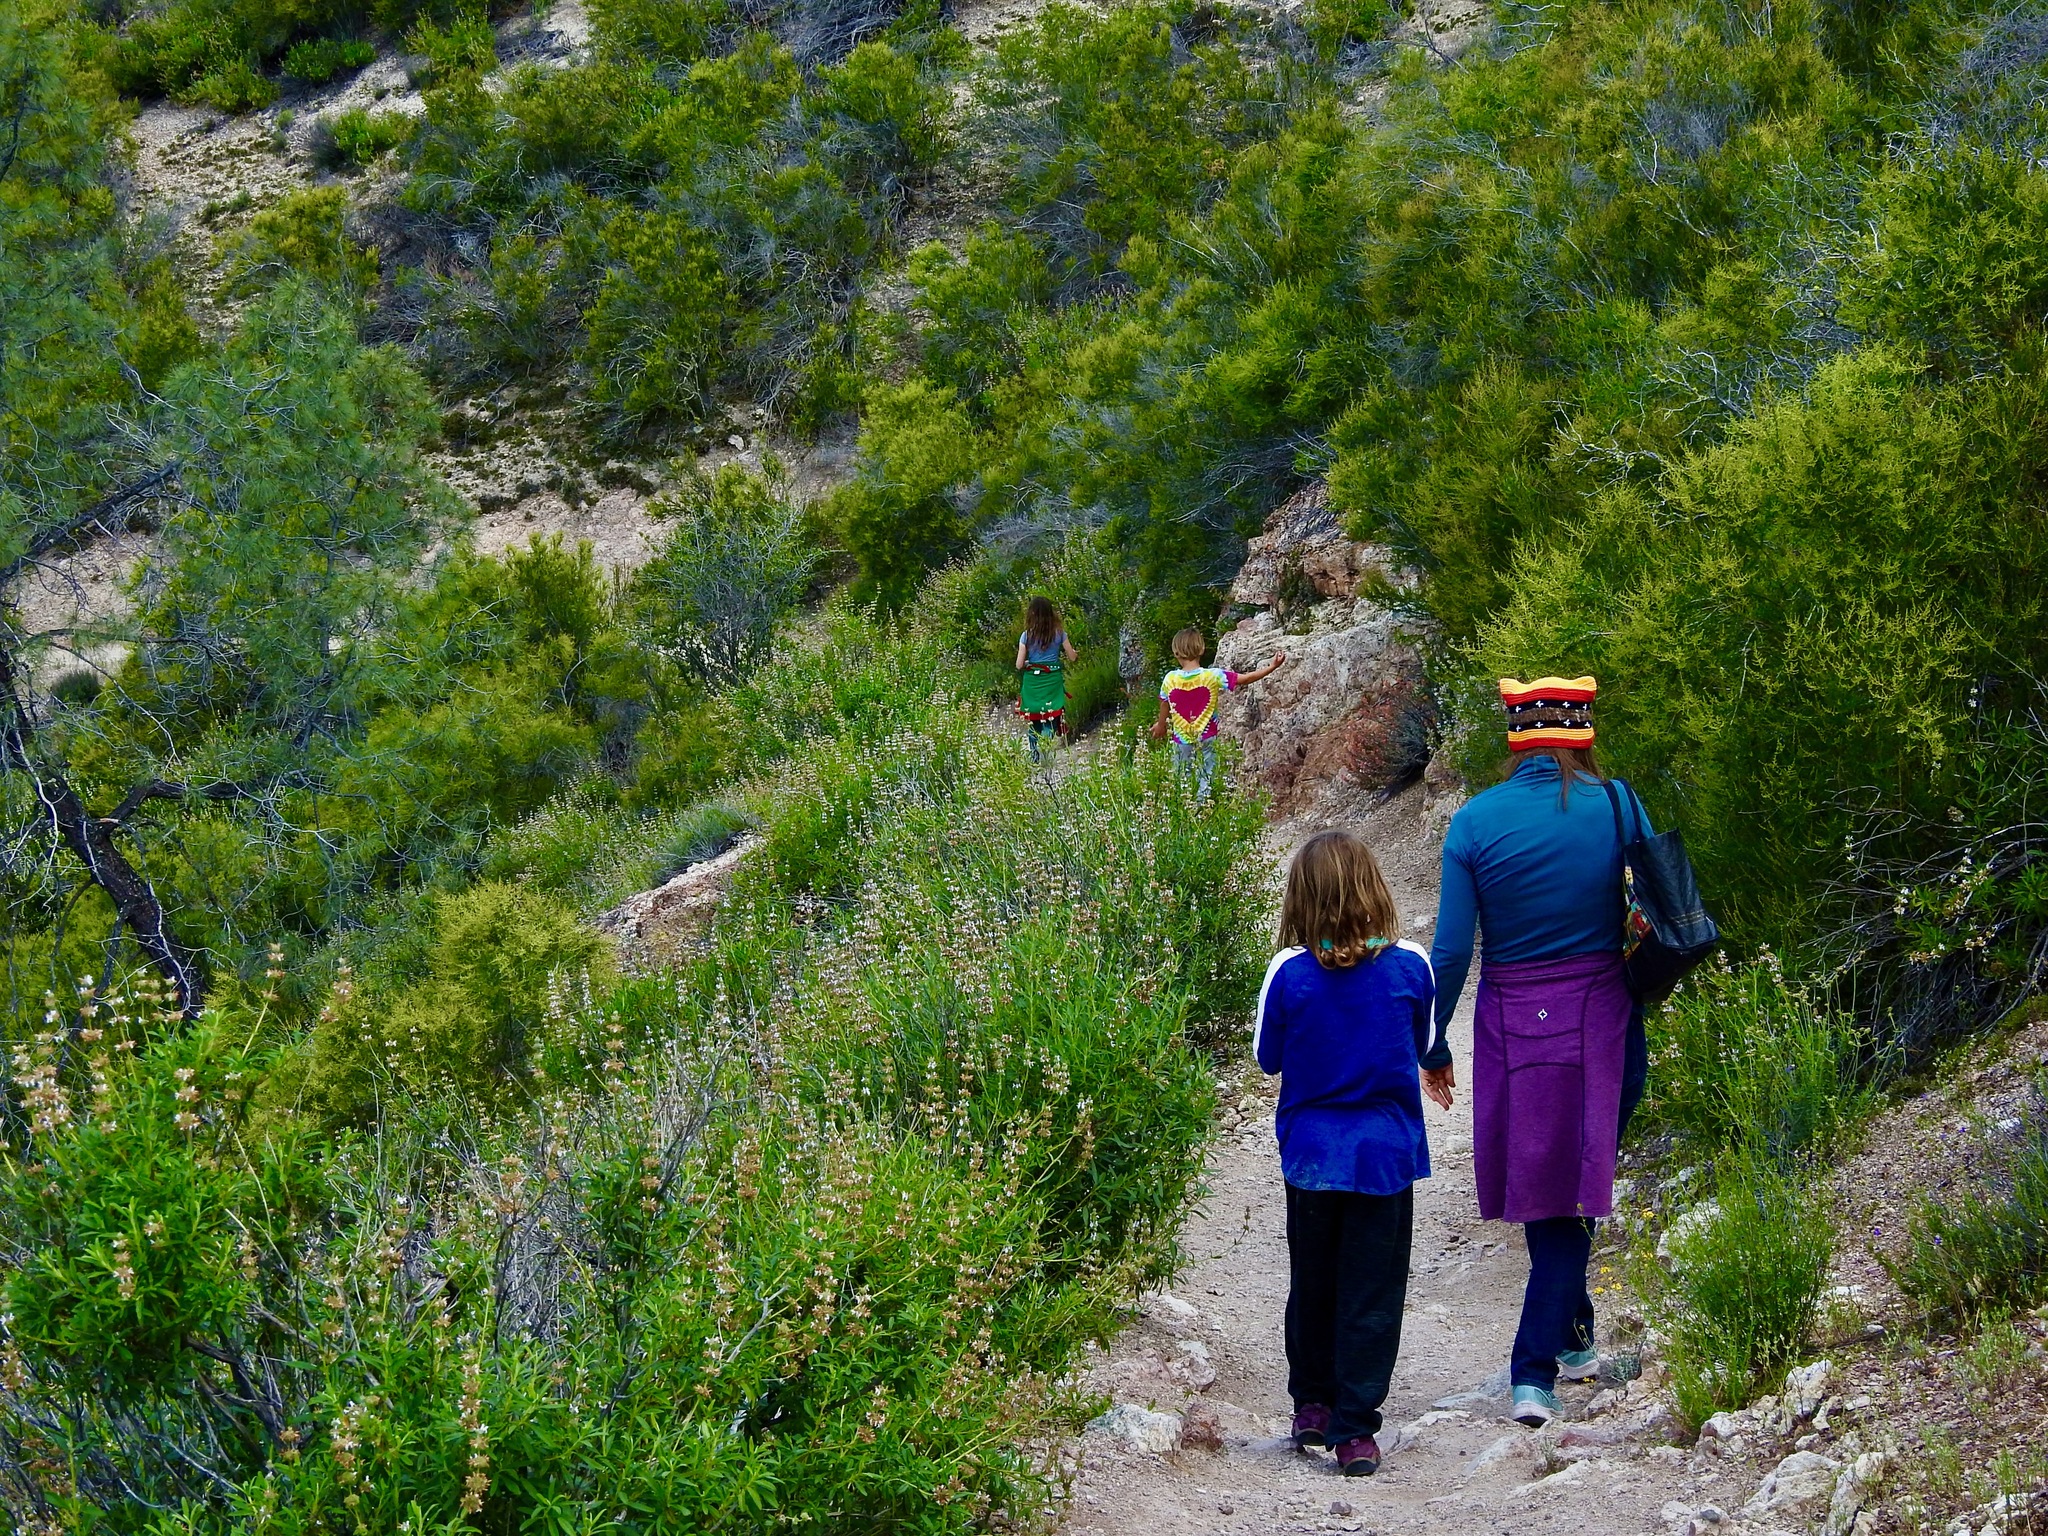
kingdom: Plantae
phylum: Tracheophyta
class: Magnoliopsida
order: Rosales
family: Rosaceae
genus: Adenostoma
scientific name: Adenostoma fasciculatum
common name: Chamise
